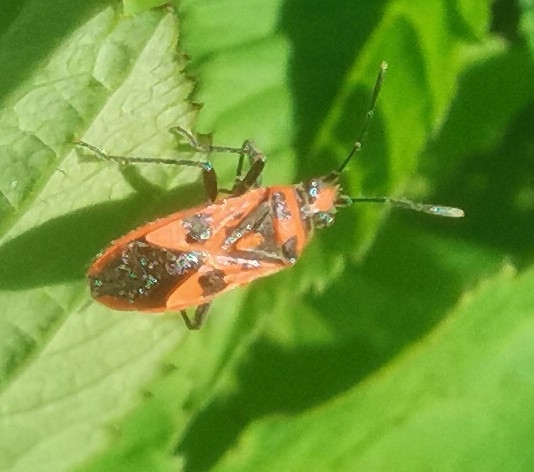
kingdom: Animalia
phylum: Arthropoda
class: Insecta
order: Hemiptera
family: Rhopalidae
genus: Corizus
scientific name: Corizus hyoscyami
